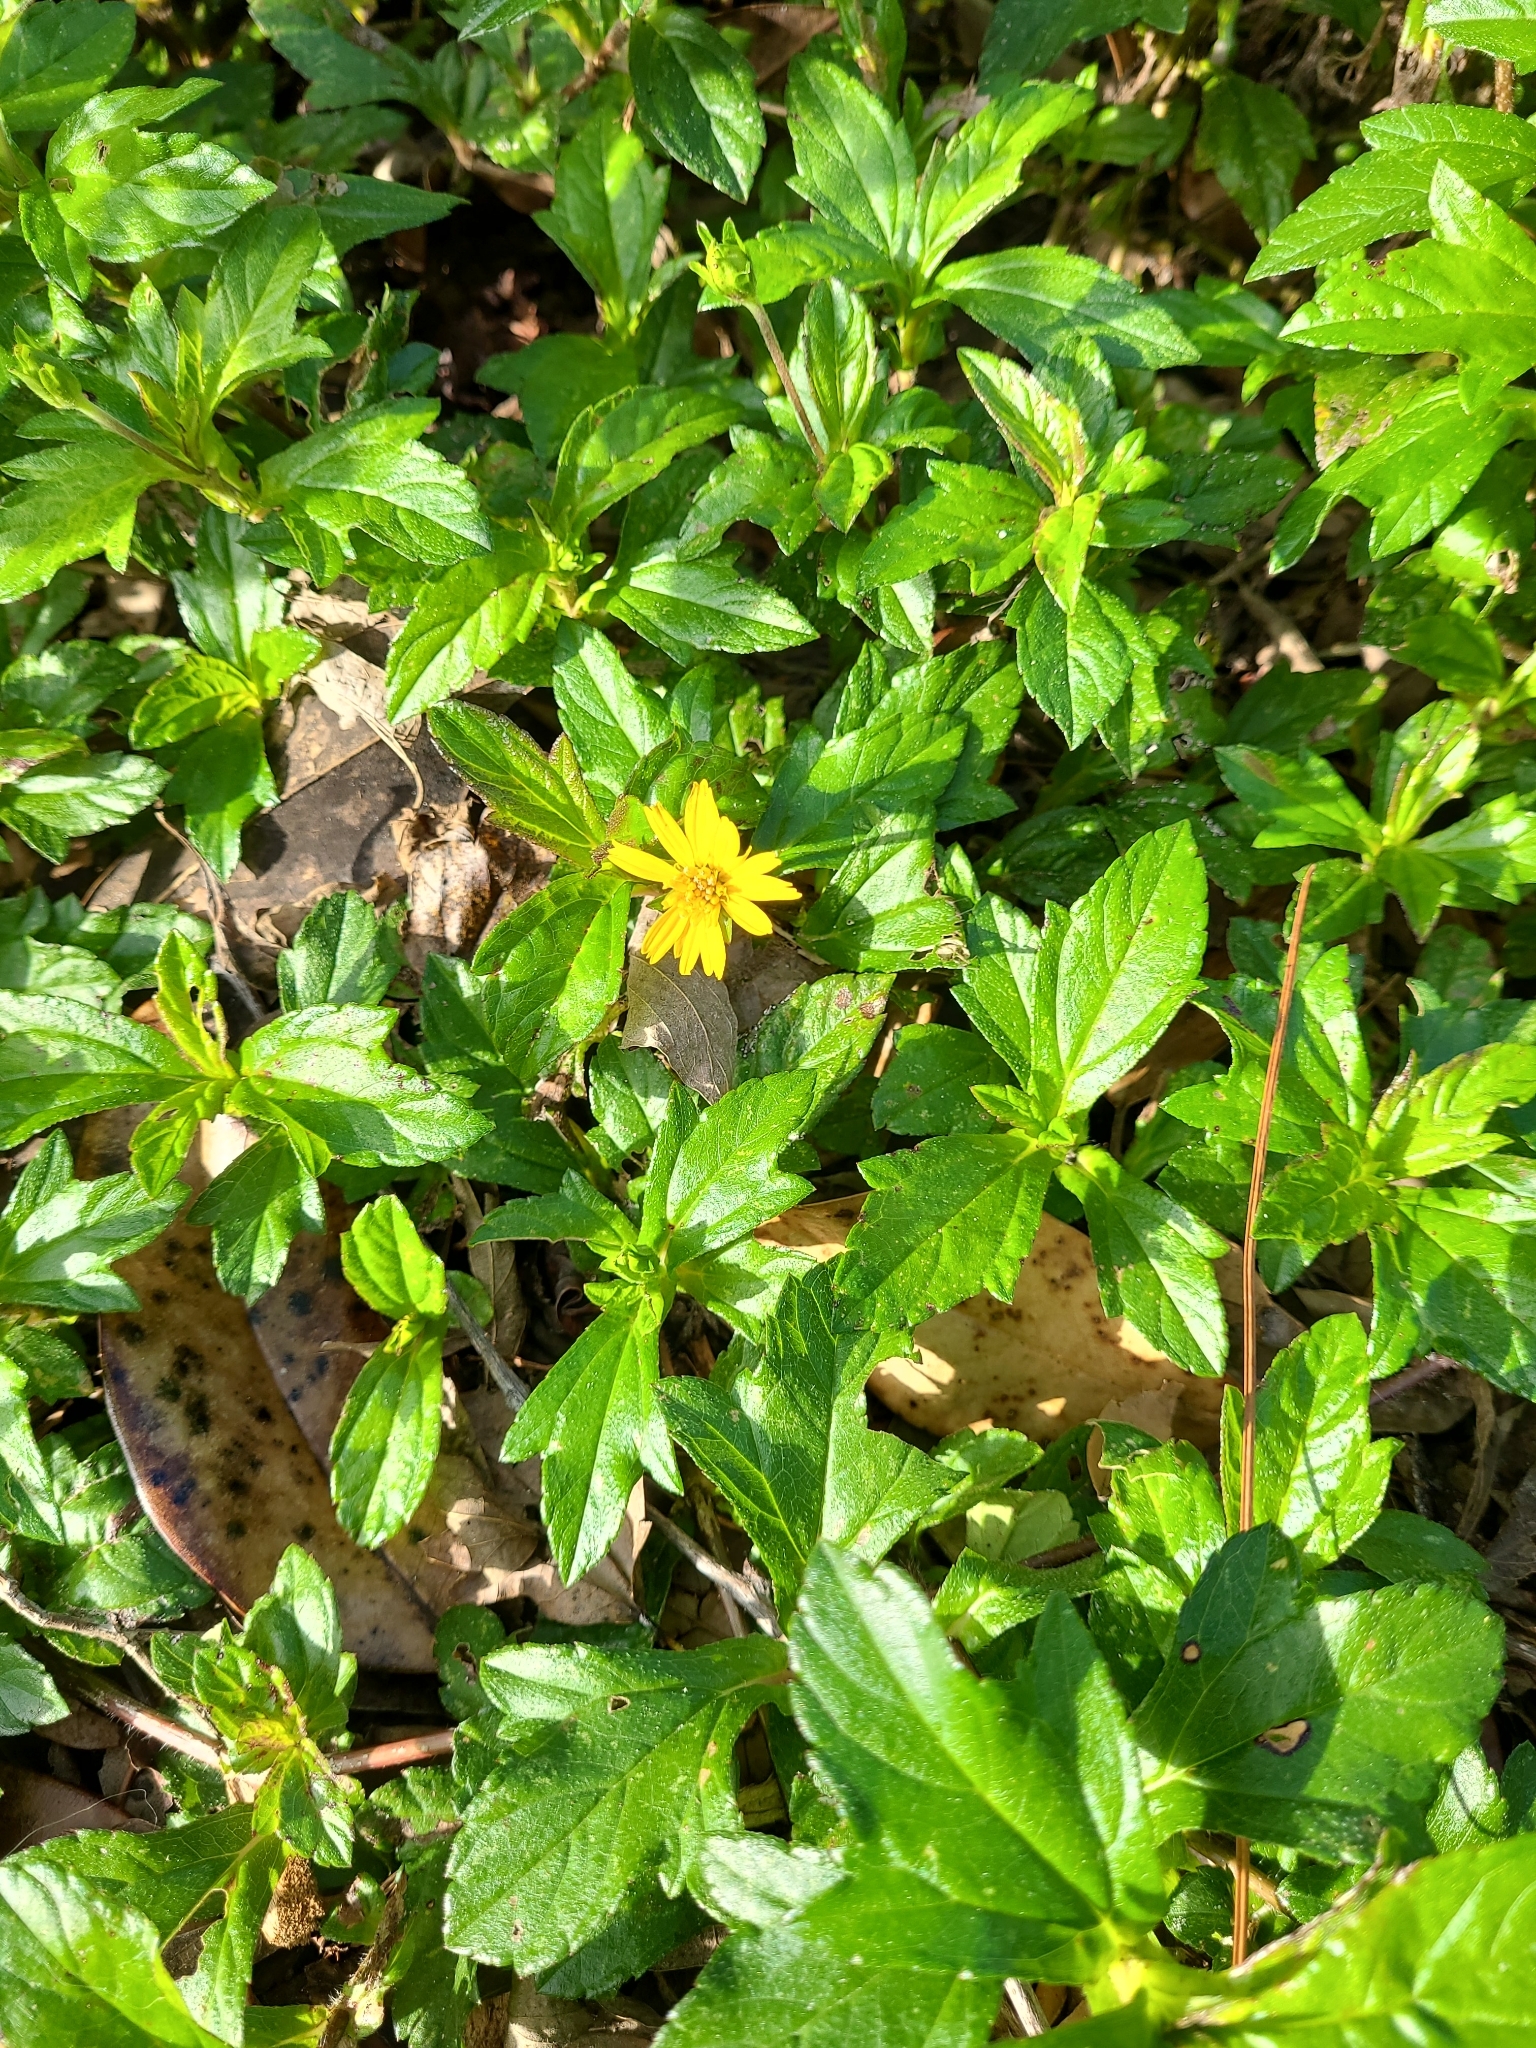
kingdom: Plantae
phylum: Tracheophyta
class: Magnoliopsida
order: Asterales
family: Asteraceae
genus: Sphagneticola
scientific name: Sphagneticola trilobata
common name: Bay biscayne creeping-oxeye
